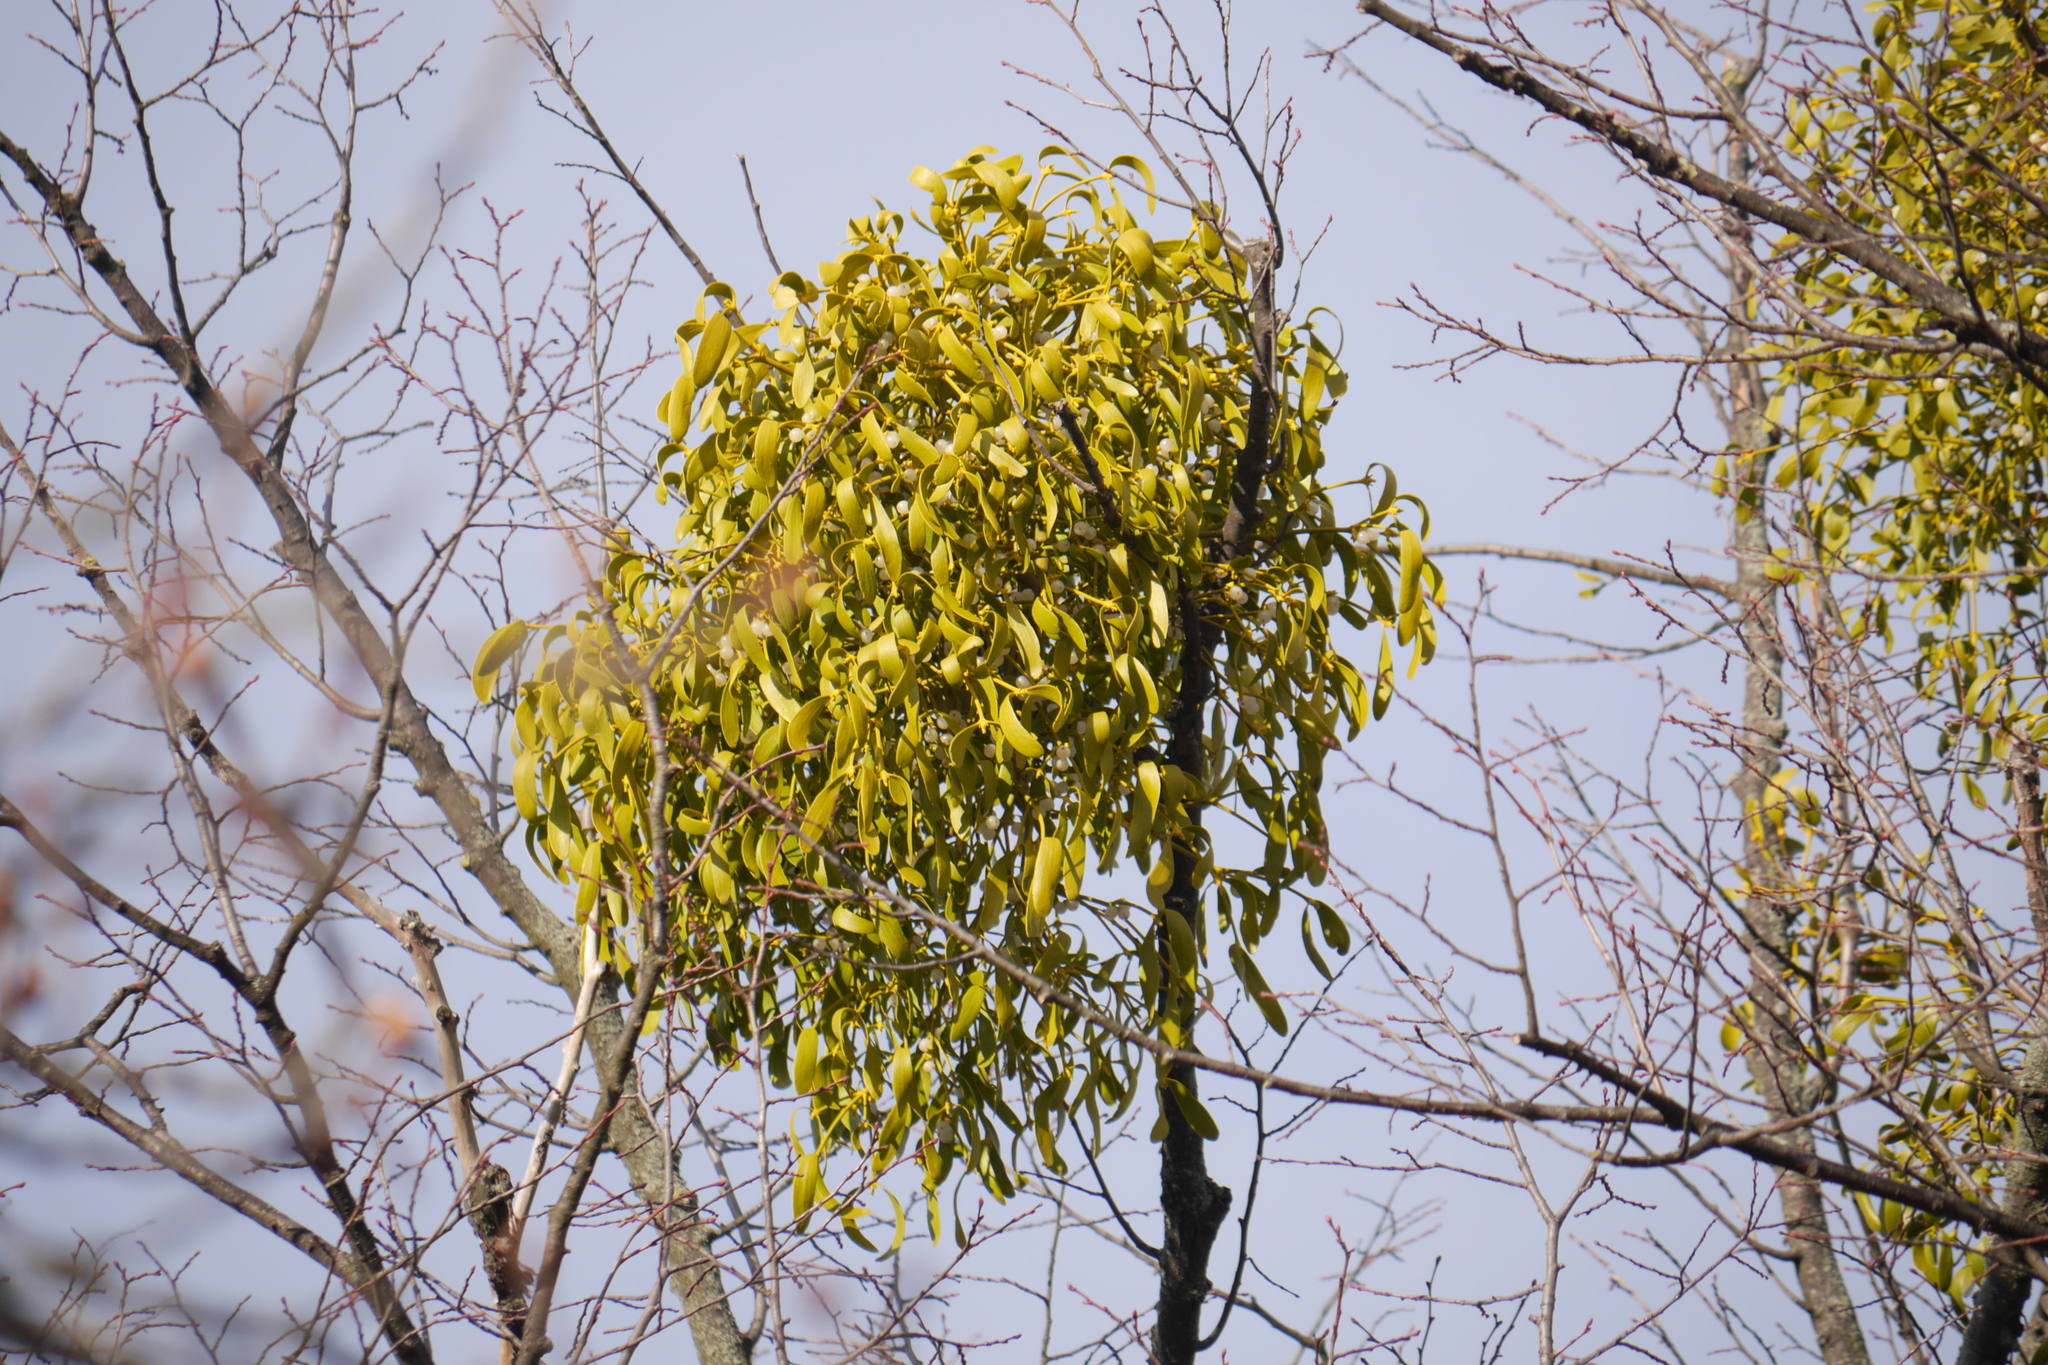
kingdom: Plantae
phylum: Tracheophyta
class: Magnoliopsida
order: Santalales
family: Viscaceae
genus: Viscum
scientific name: Viscum album
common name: Mistletoe
